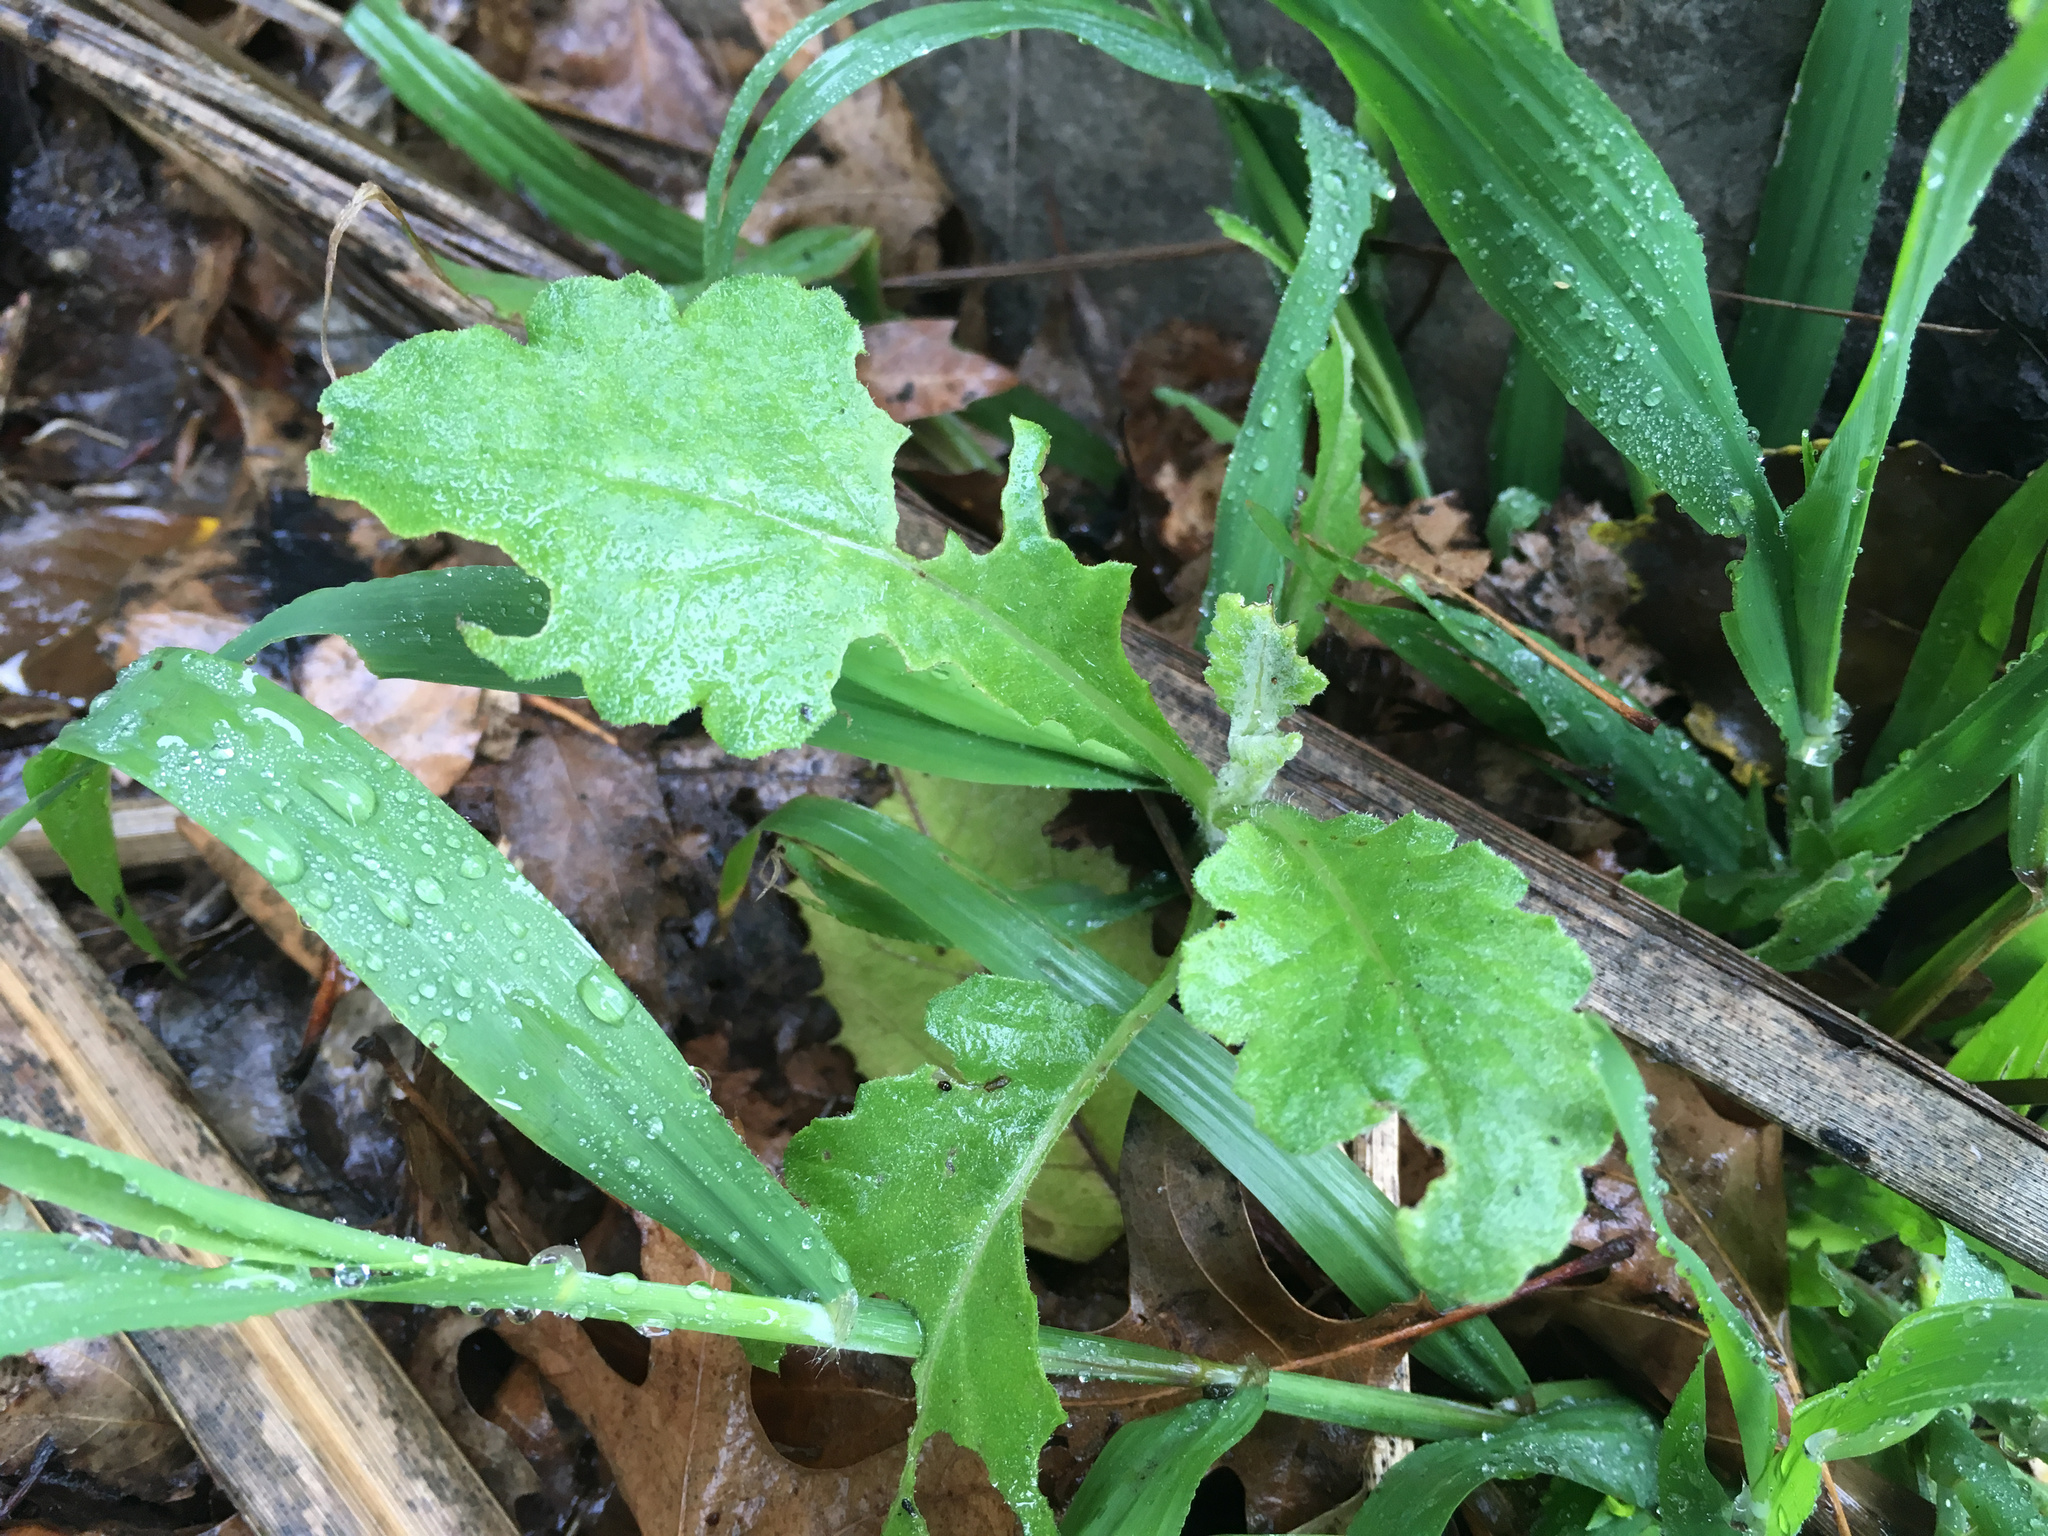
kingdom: Plantae
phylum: Tracheophyta
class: Magnoliopsida
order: Asterales
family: Asteraceae
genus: Senecio
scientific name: Senecio glomeratus
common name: Cutleaf burnweed
